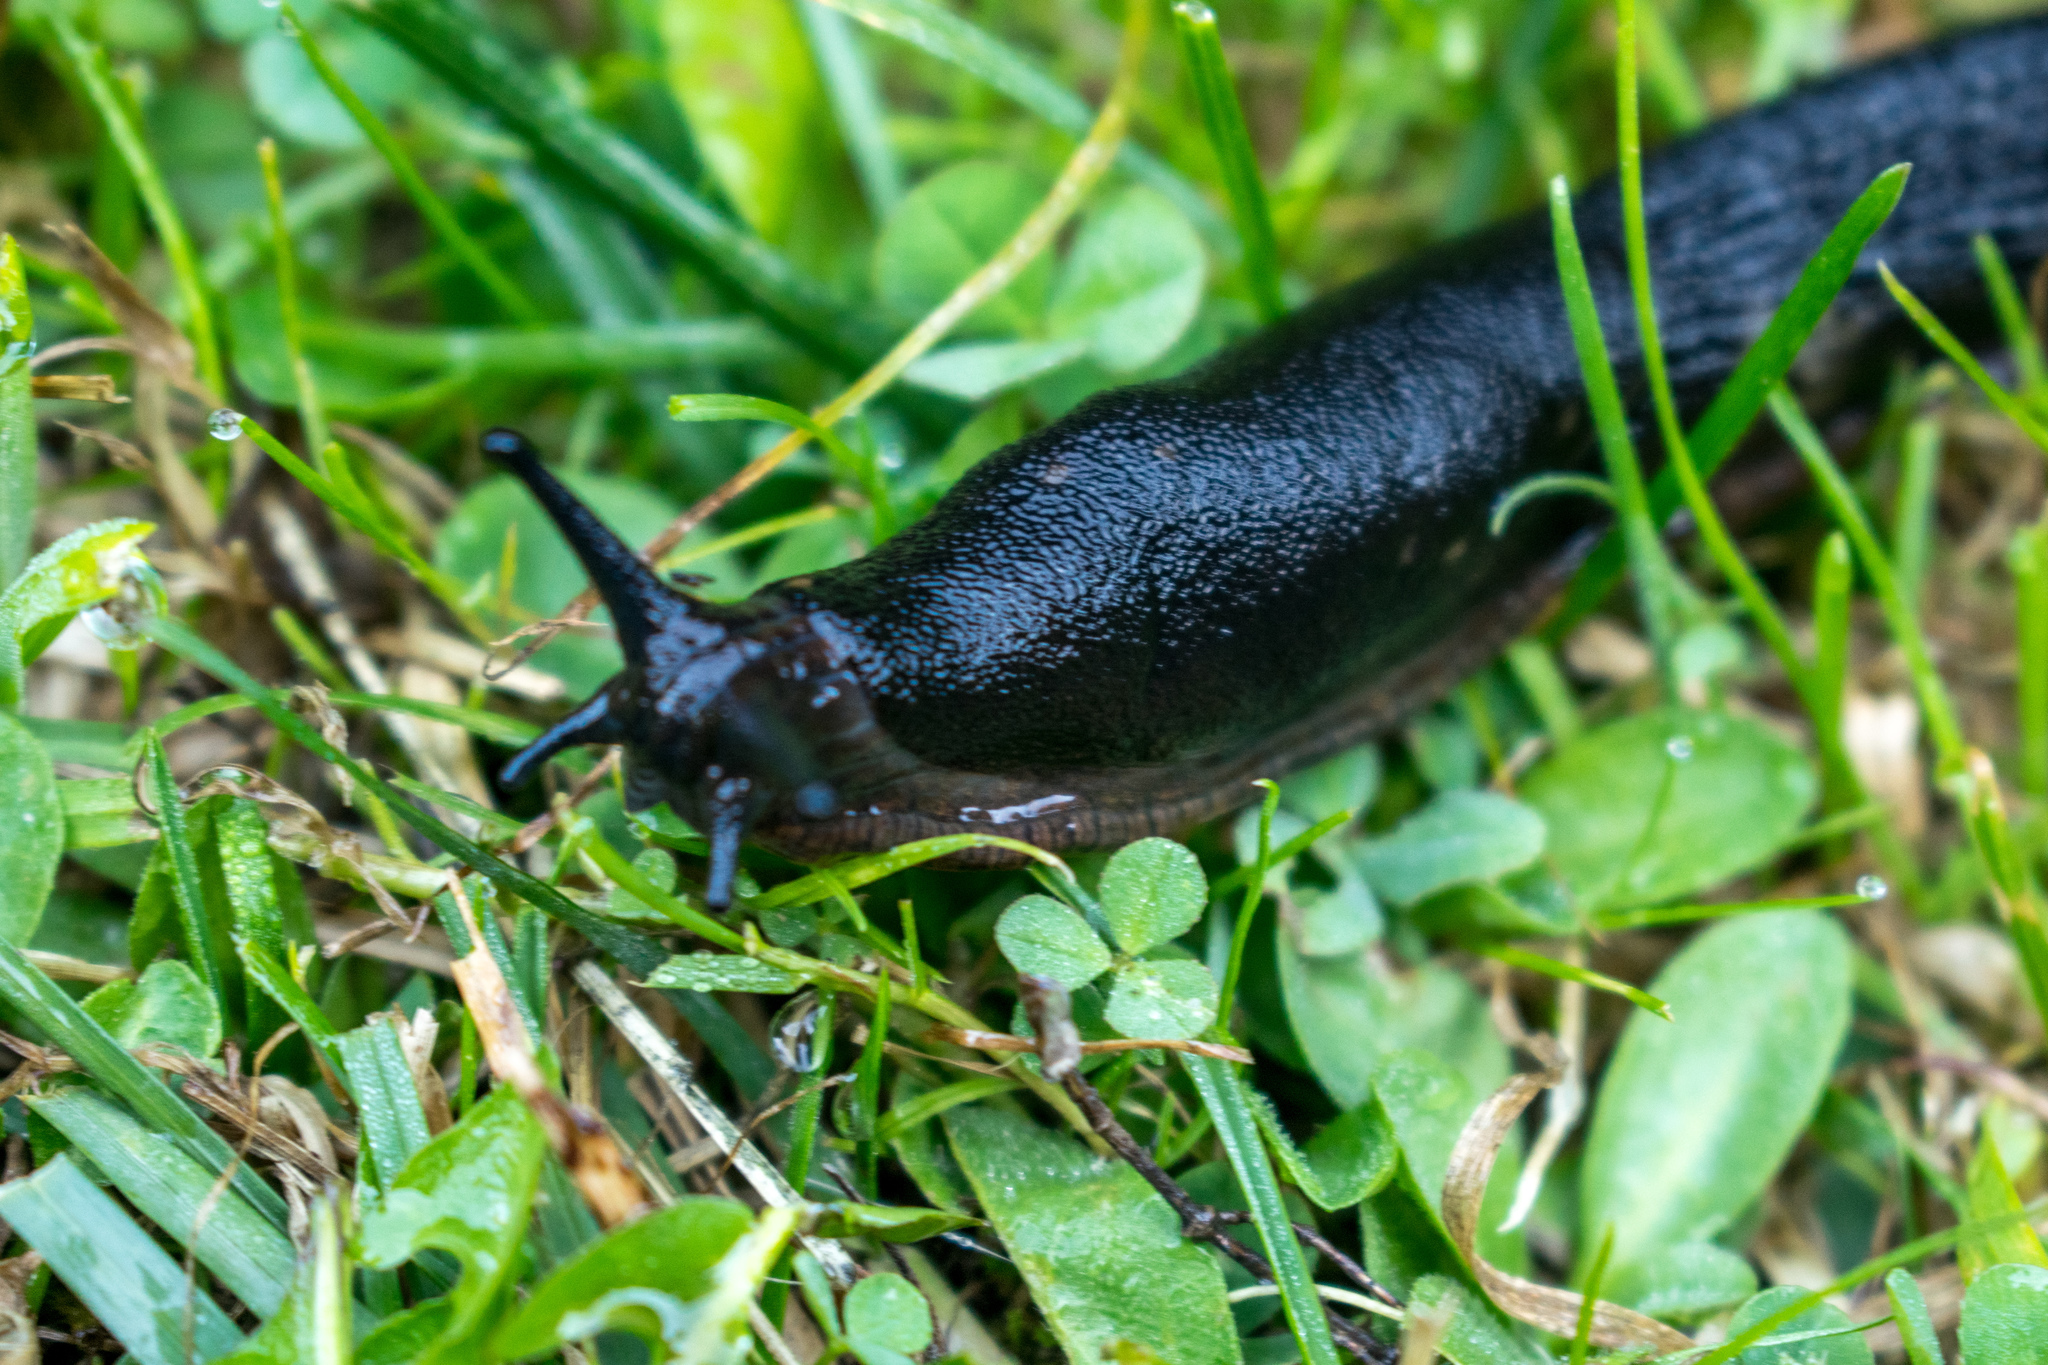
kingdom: Animalia
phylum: Mollusca
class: Gastropoda
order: Stylommatophora
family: Arionidae
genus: Arion
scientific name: Arion ater
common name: Black arion
